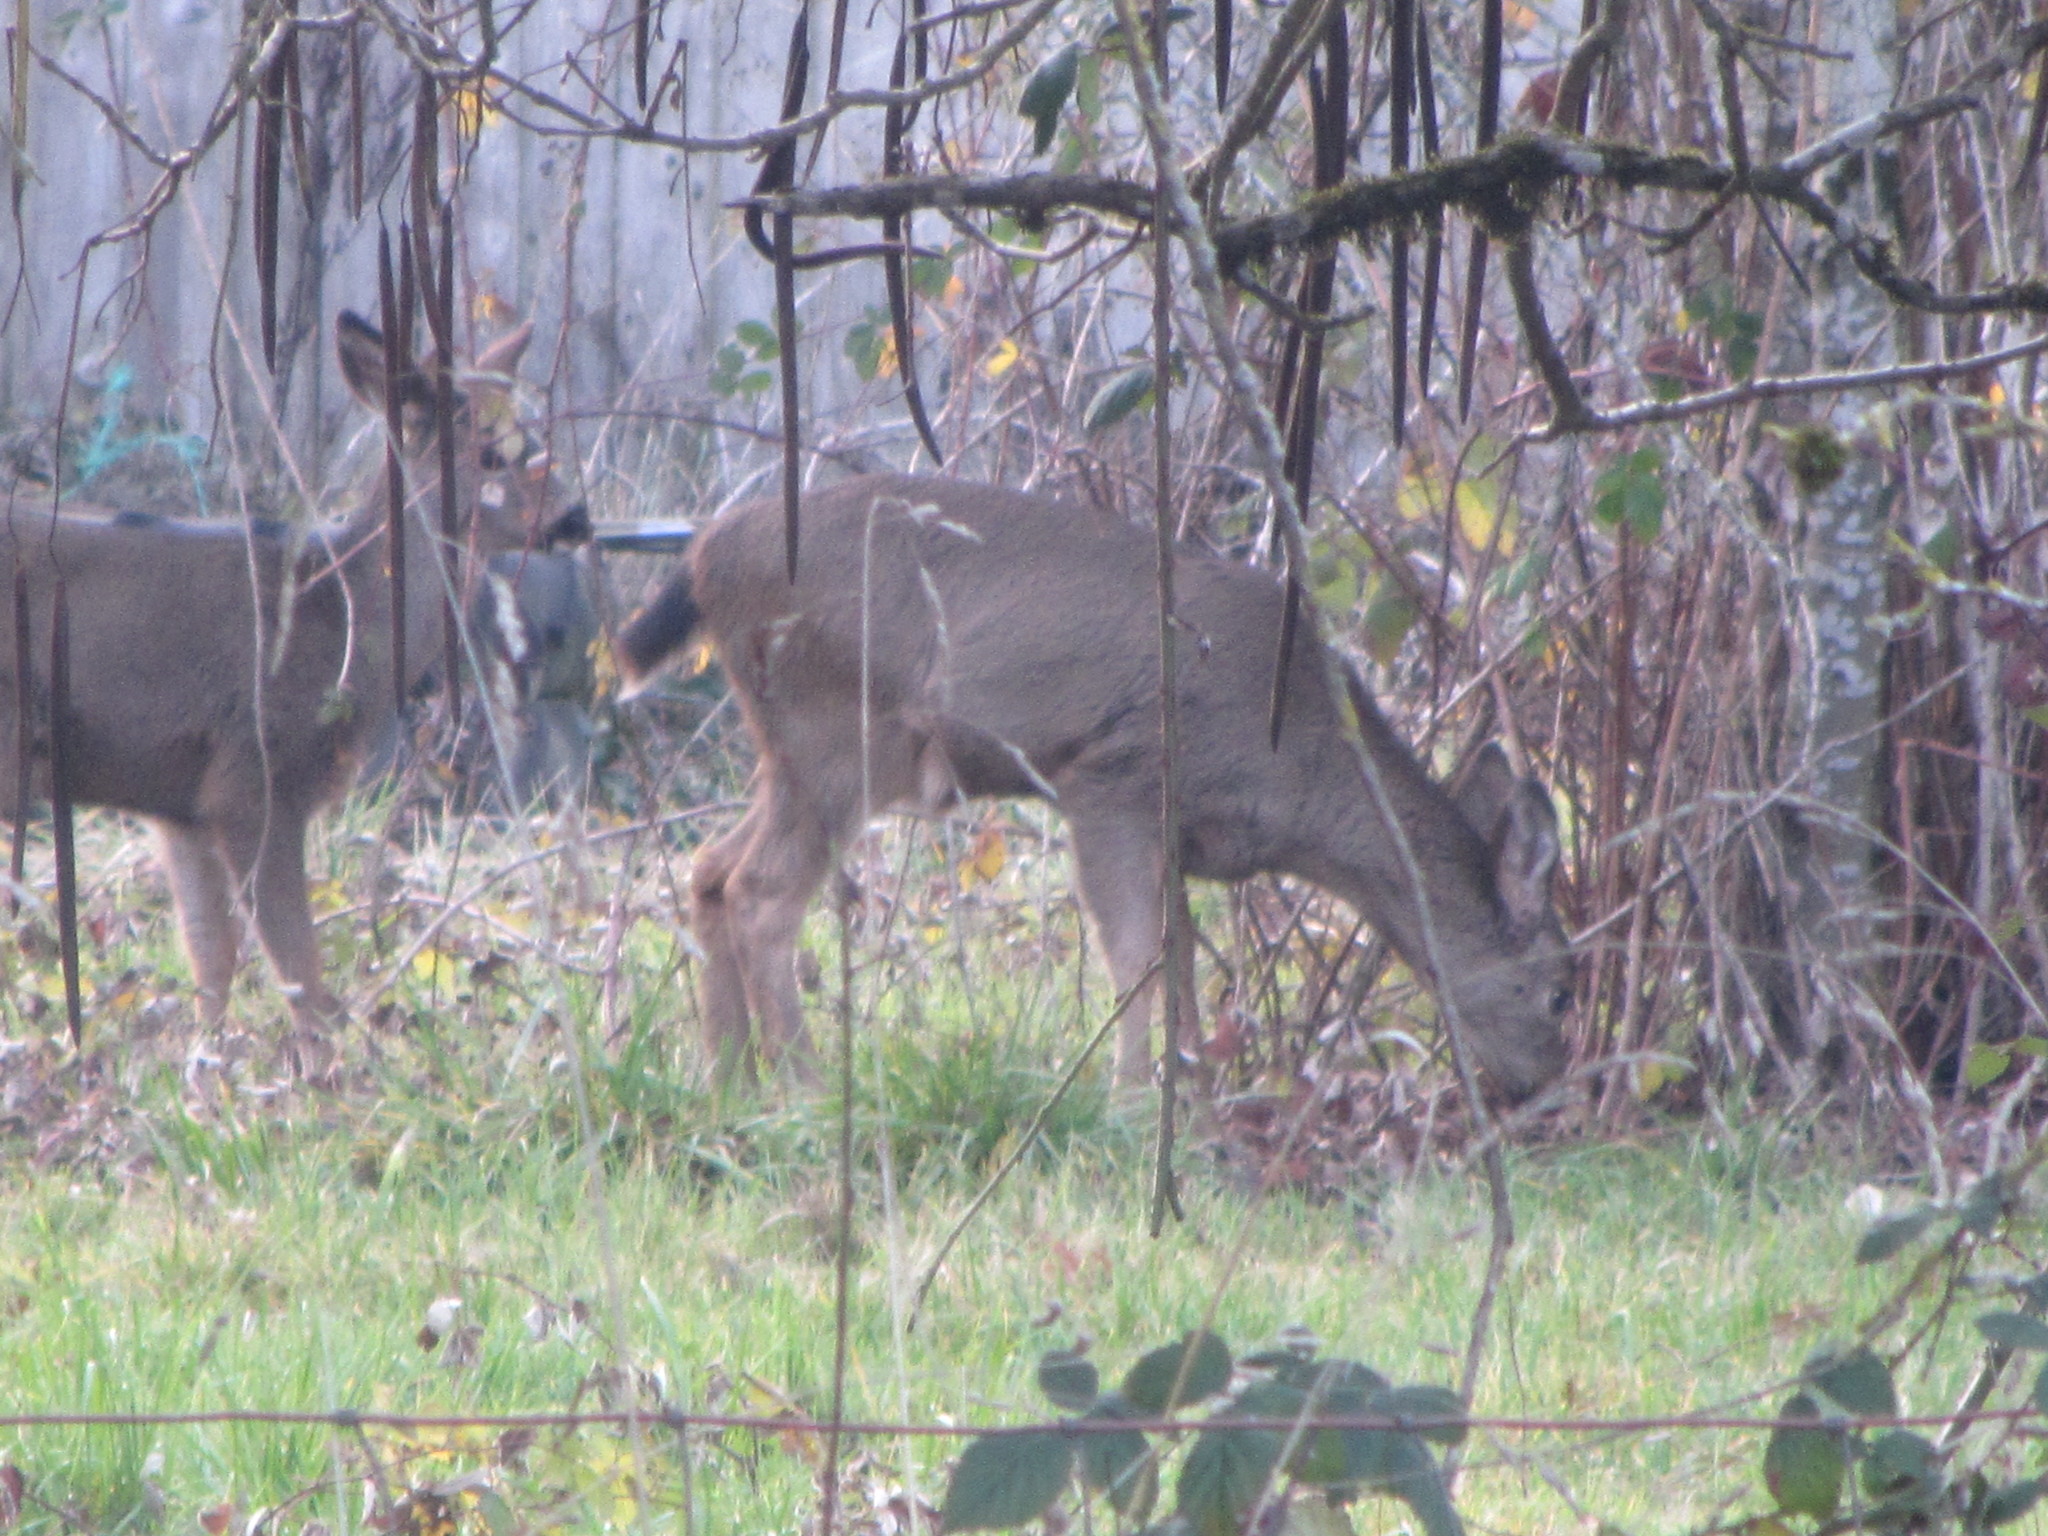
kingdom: Animalia
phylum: Chordata
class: Mammalia
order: Artiodactyla
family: Cervidae
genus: Odocoileus
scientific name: Odocoileus hemionus
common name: Mule deer
